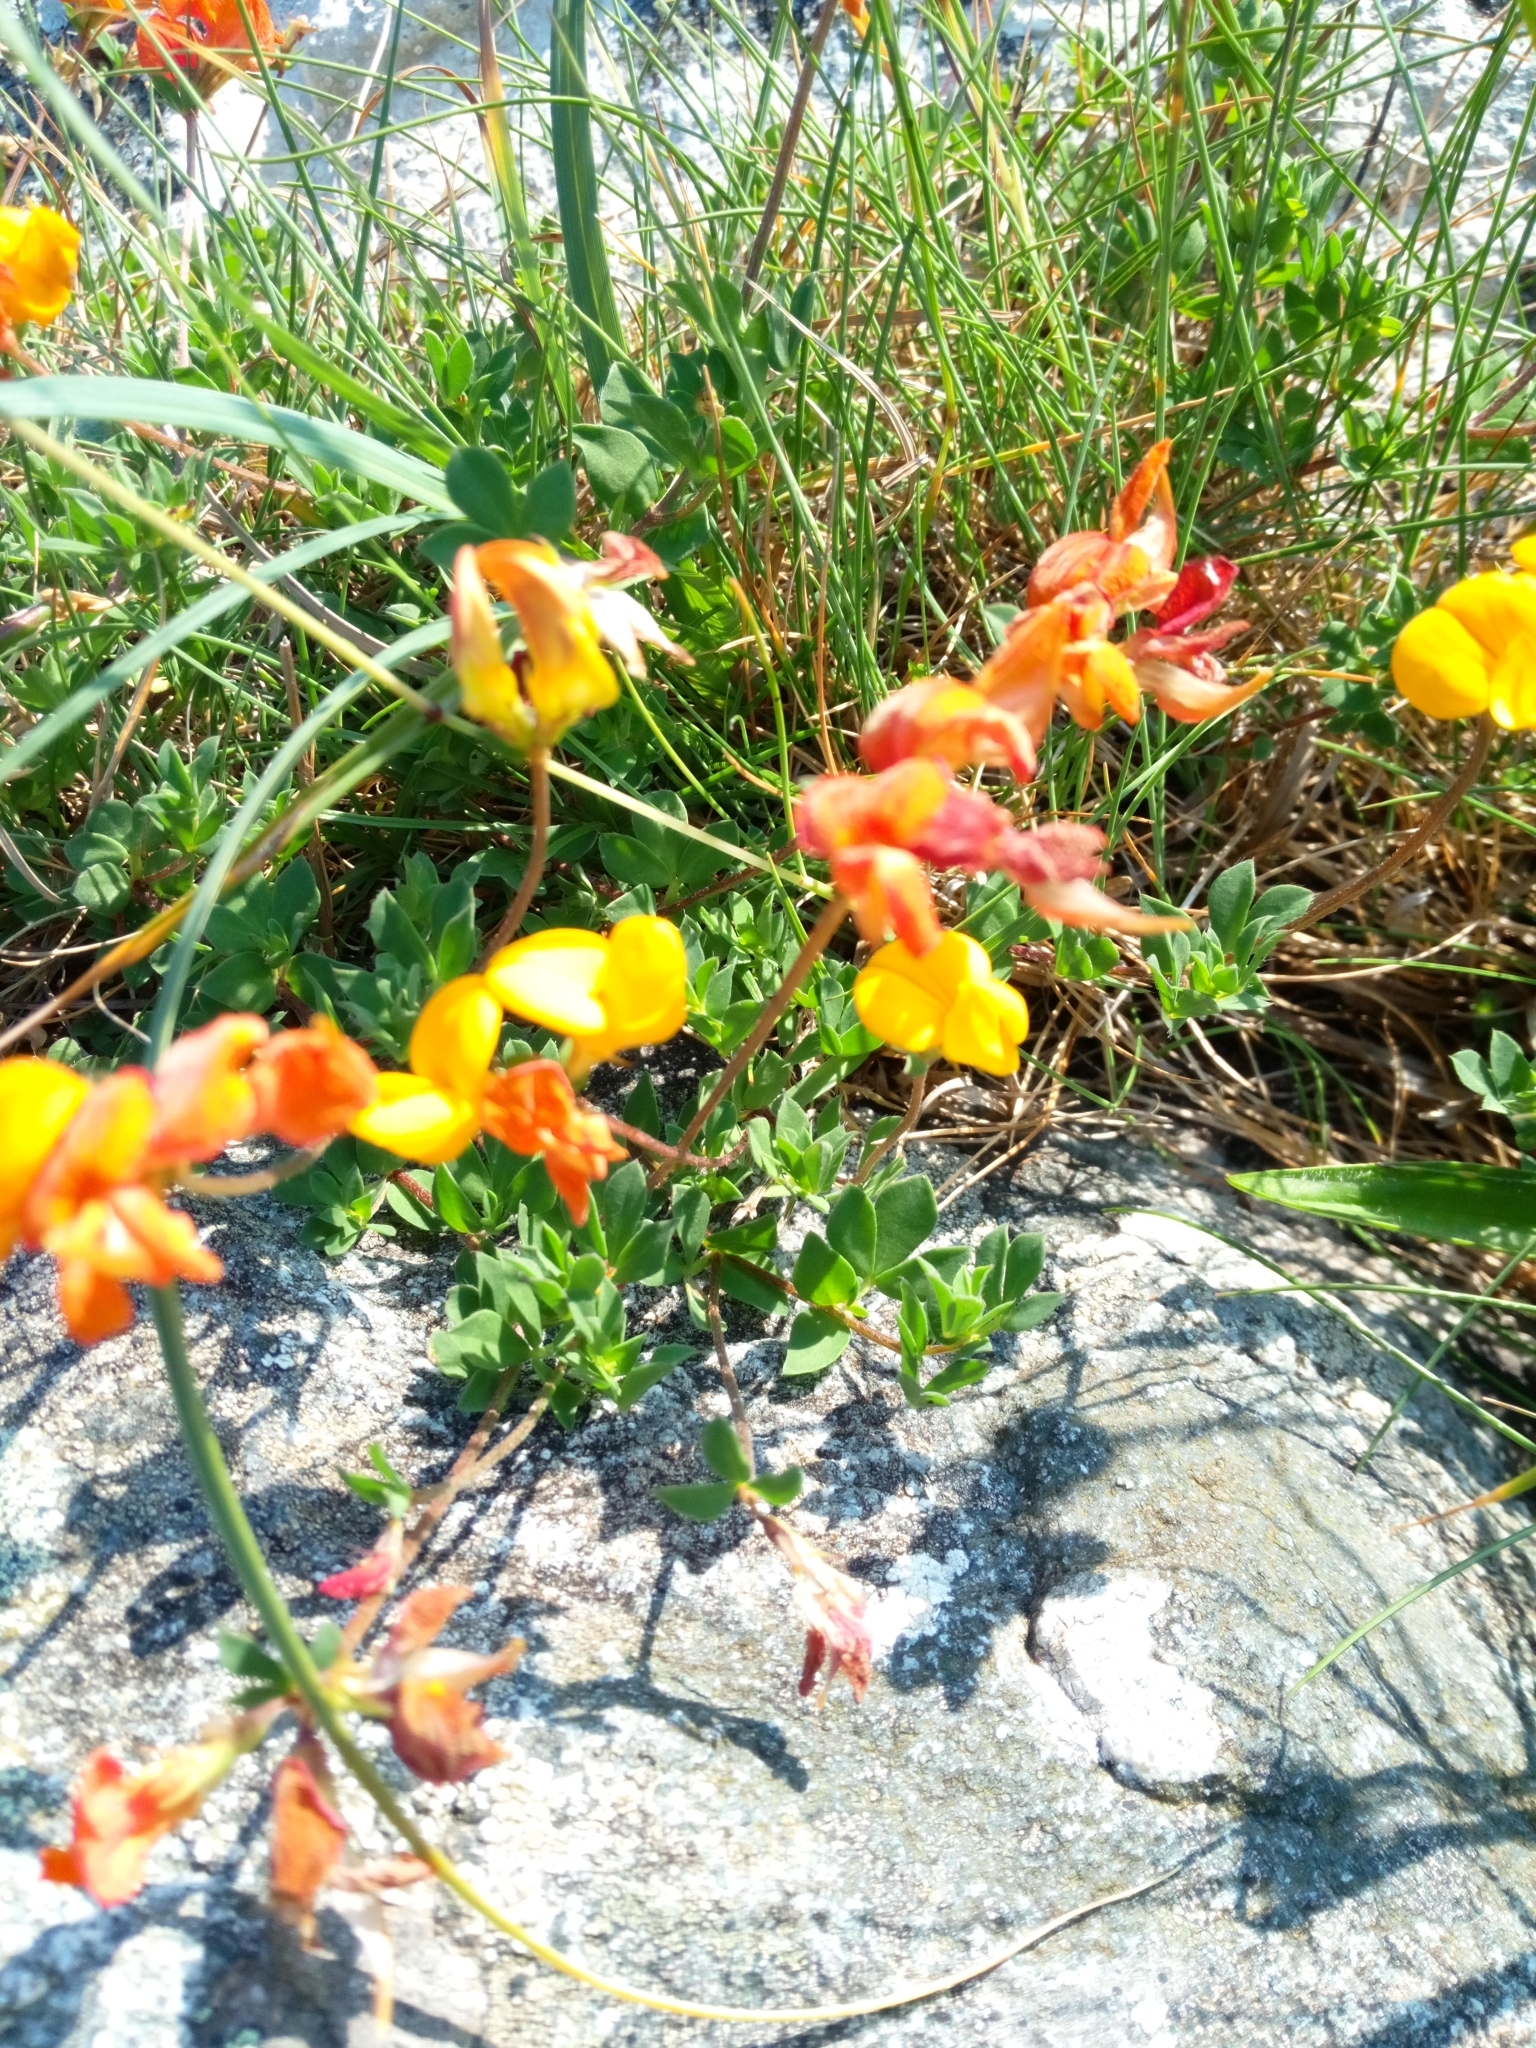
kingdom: Plantae
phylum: Tracheophyta
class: Magnoliopsida
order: Fabales
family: Fabaceae
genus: Lotus
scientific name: Lotus corniculatus
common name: Common bird's-foot-trefoil
